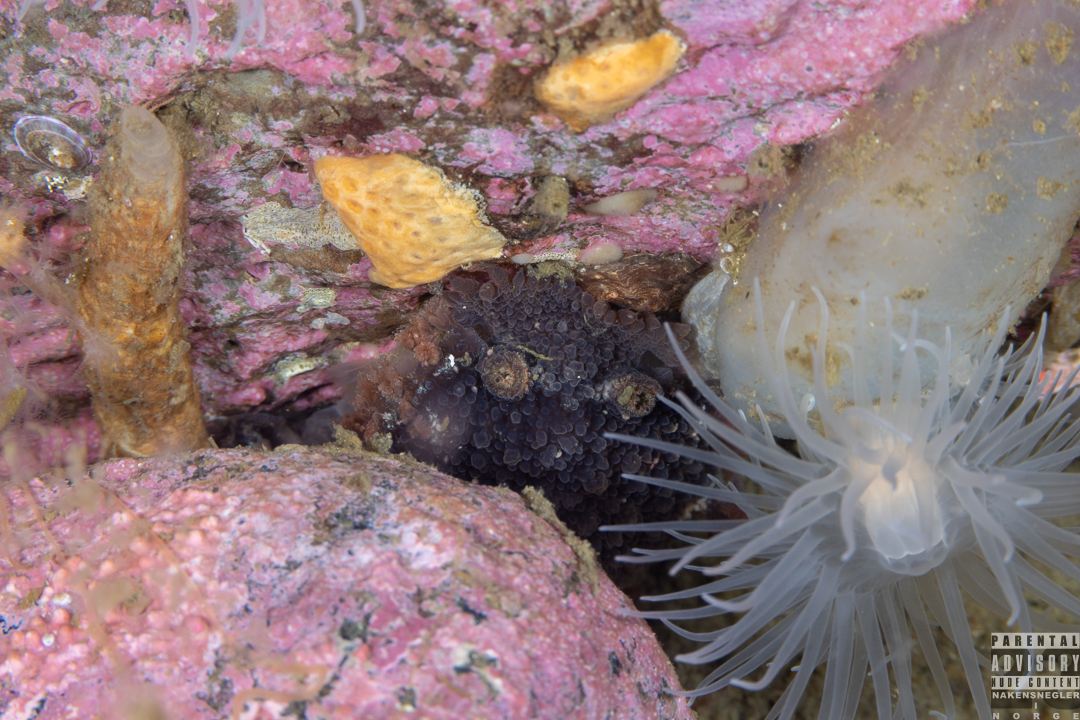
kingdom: Animalia
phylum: Mollusca
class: Gastropoda
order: Nudibranchia
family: Tritoniidae
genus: Tritonia
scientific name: Tritonia hombergii
